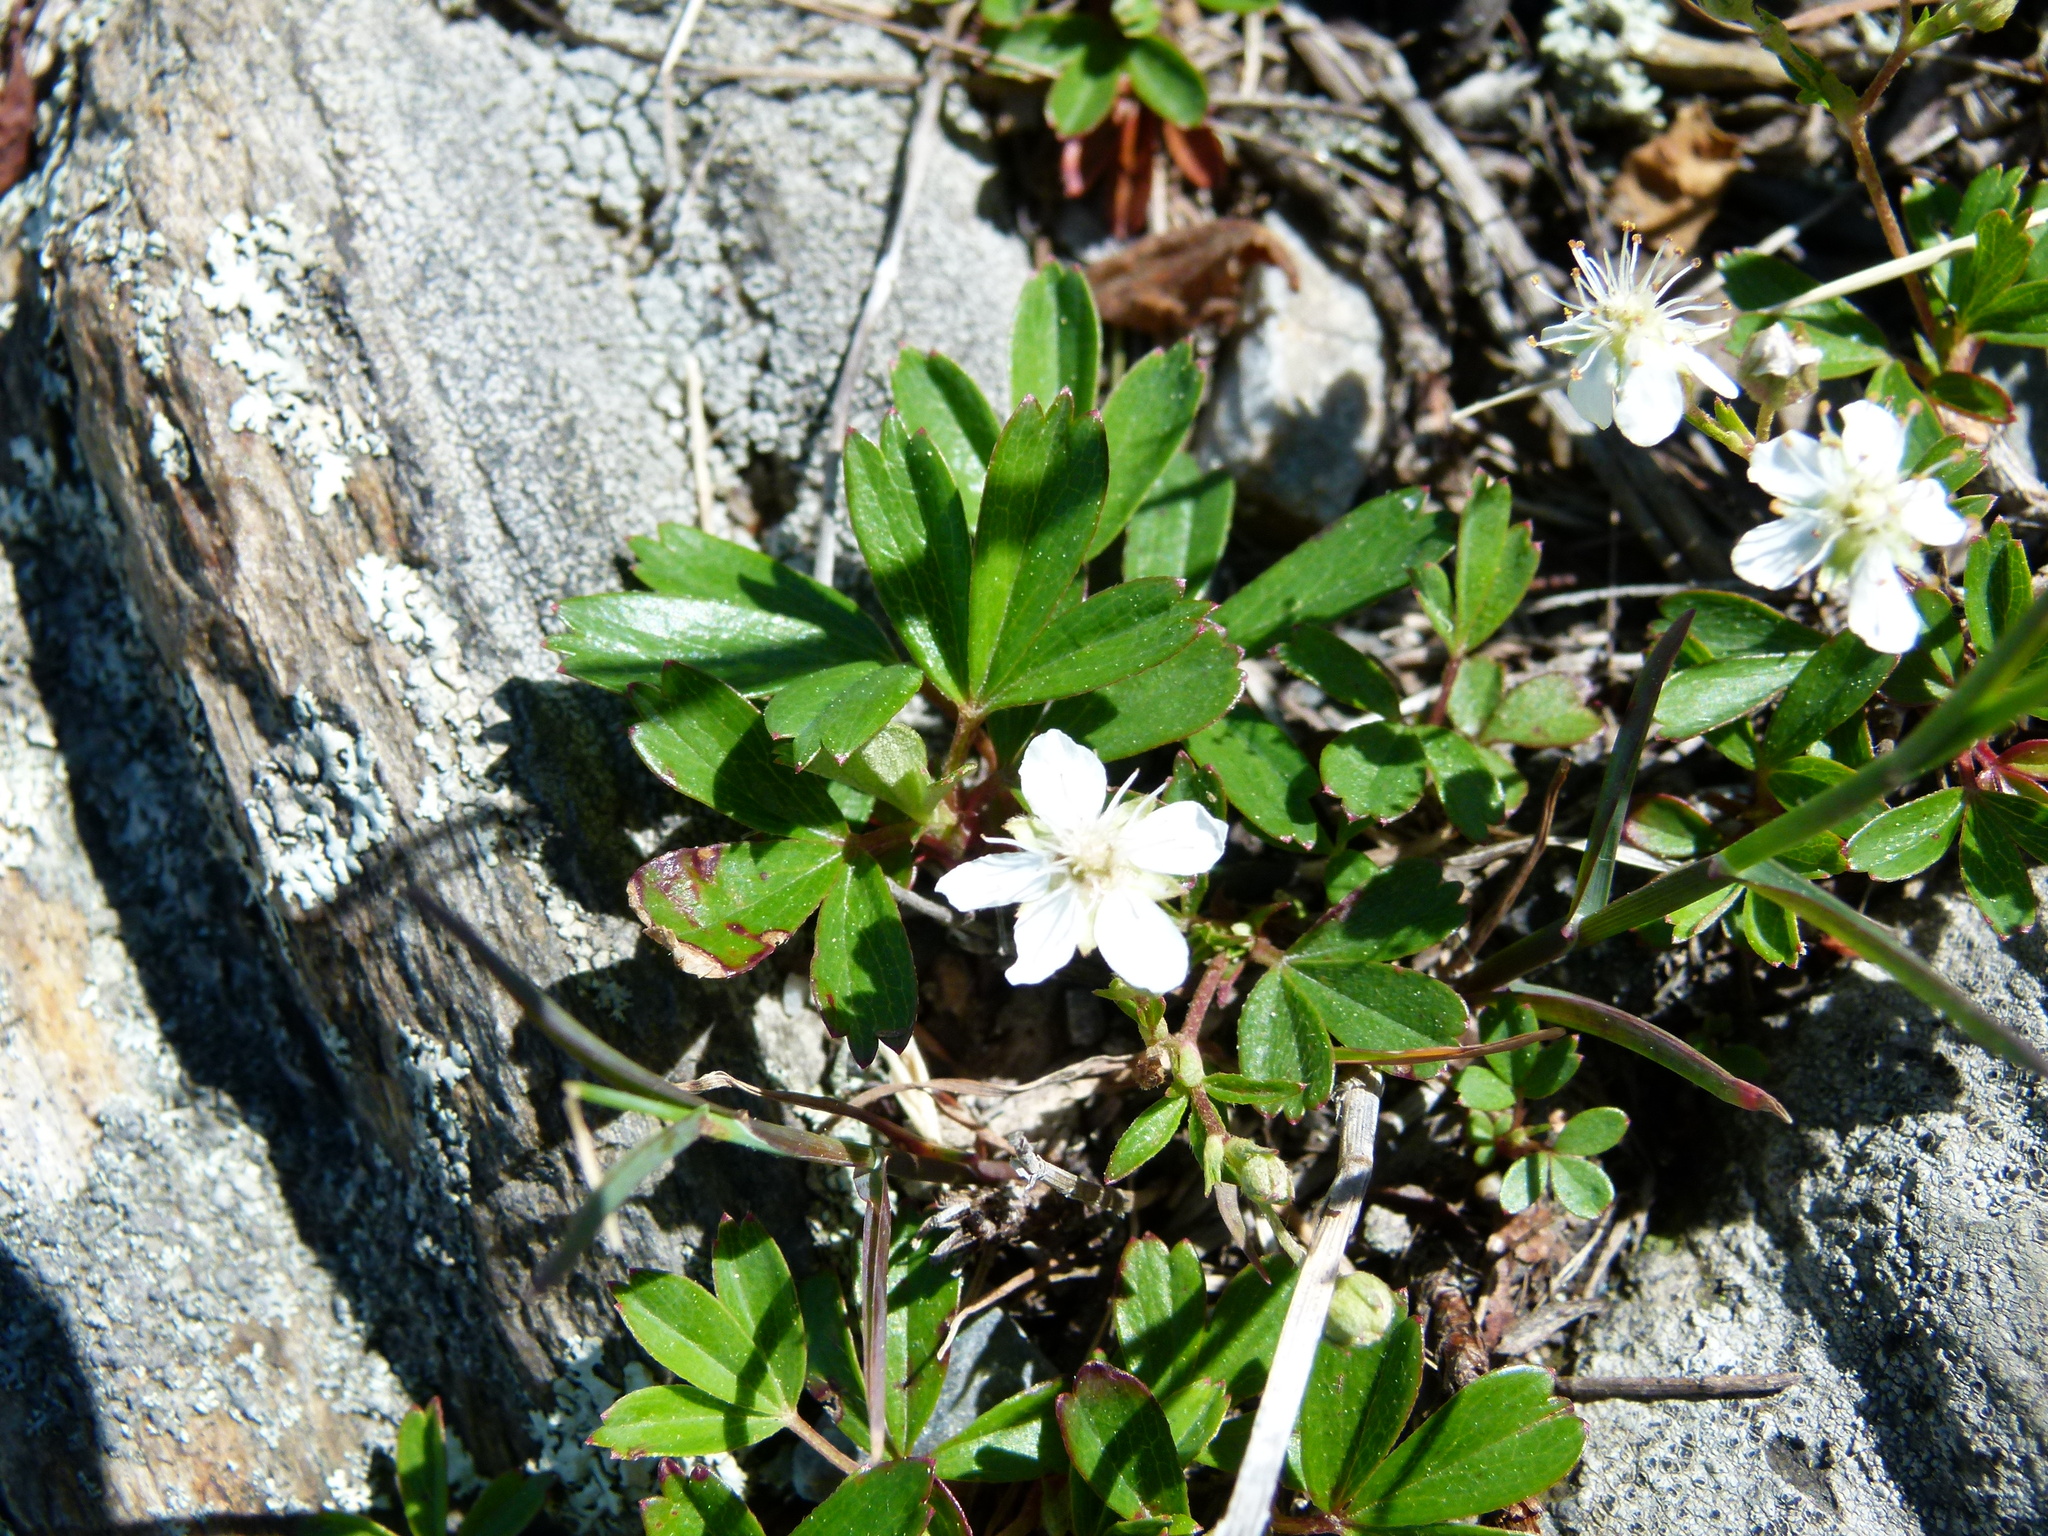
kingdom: Plantae
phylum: Tracheophyta
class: Magnoliopsida
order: Rosales
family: Rosaceae
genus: Sibbaldia
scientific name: Sibbaldia tridentata
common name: Three-toothed cinquefoil
